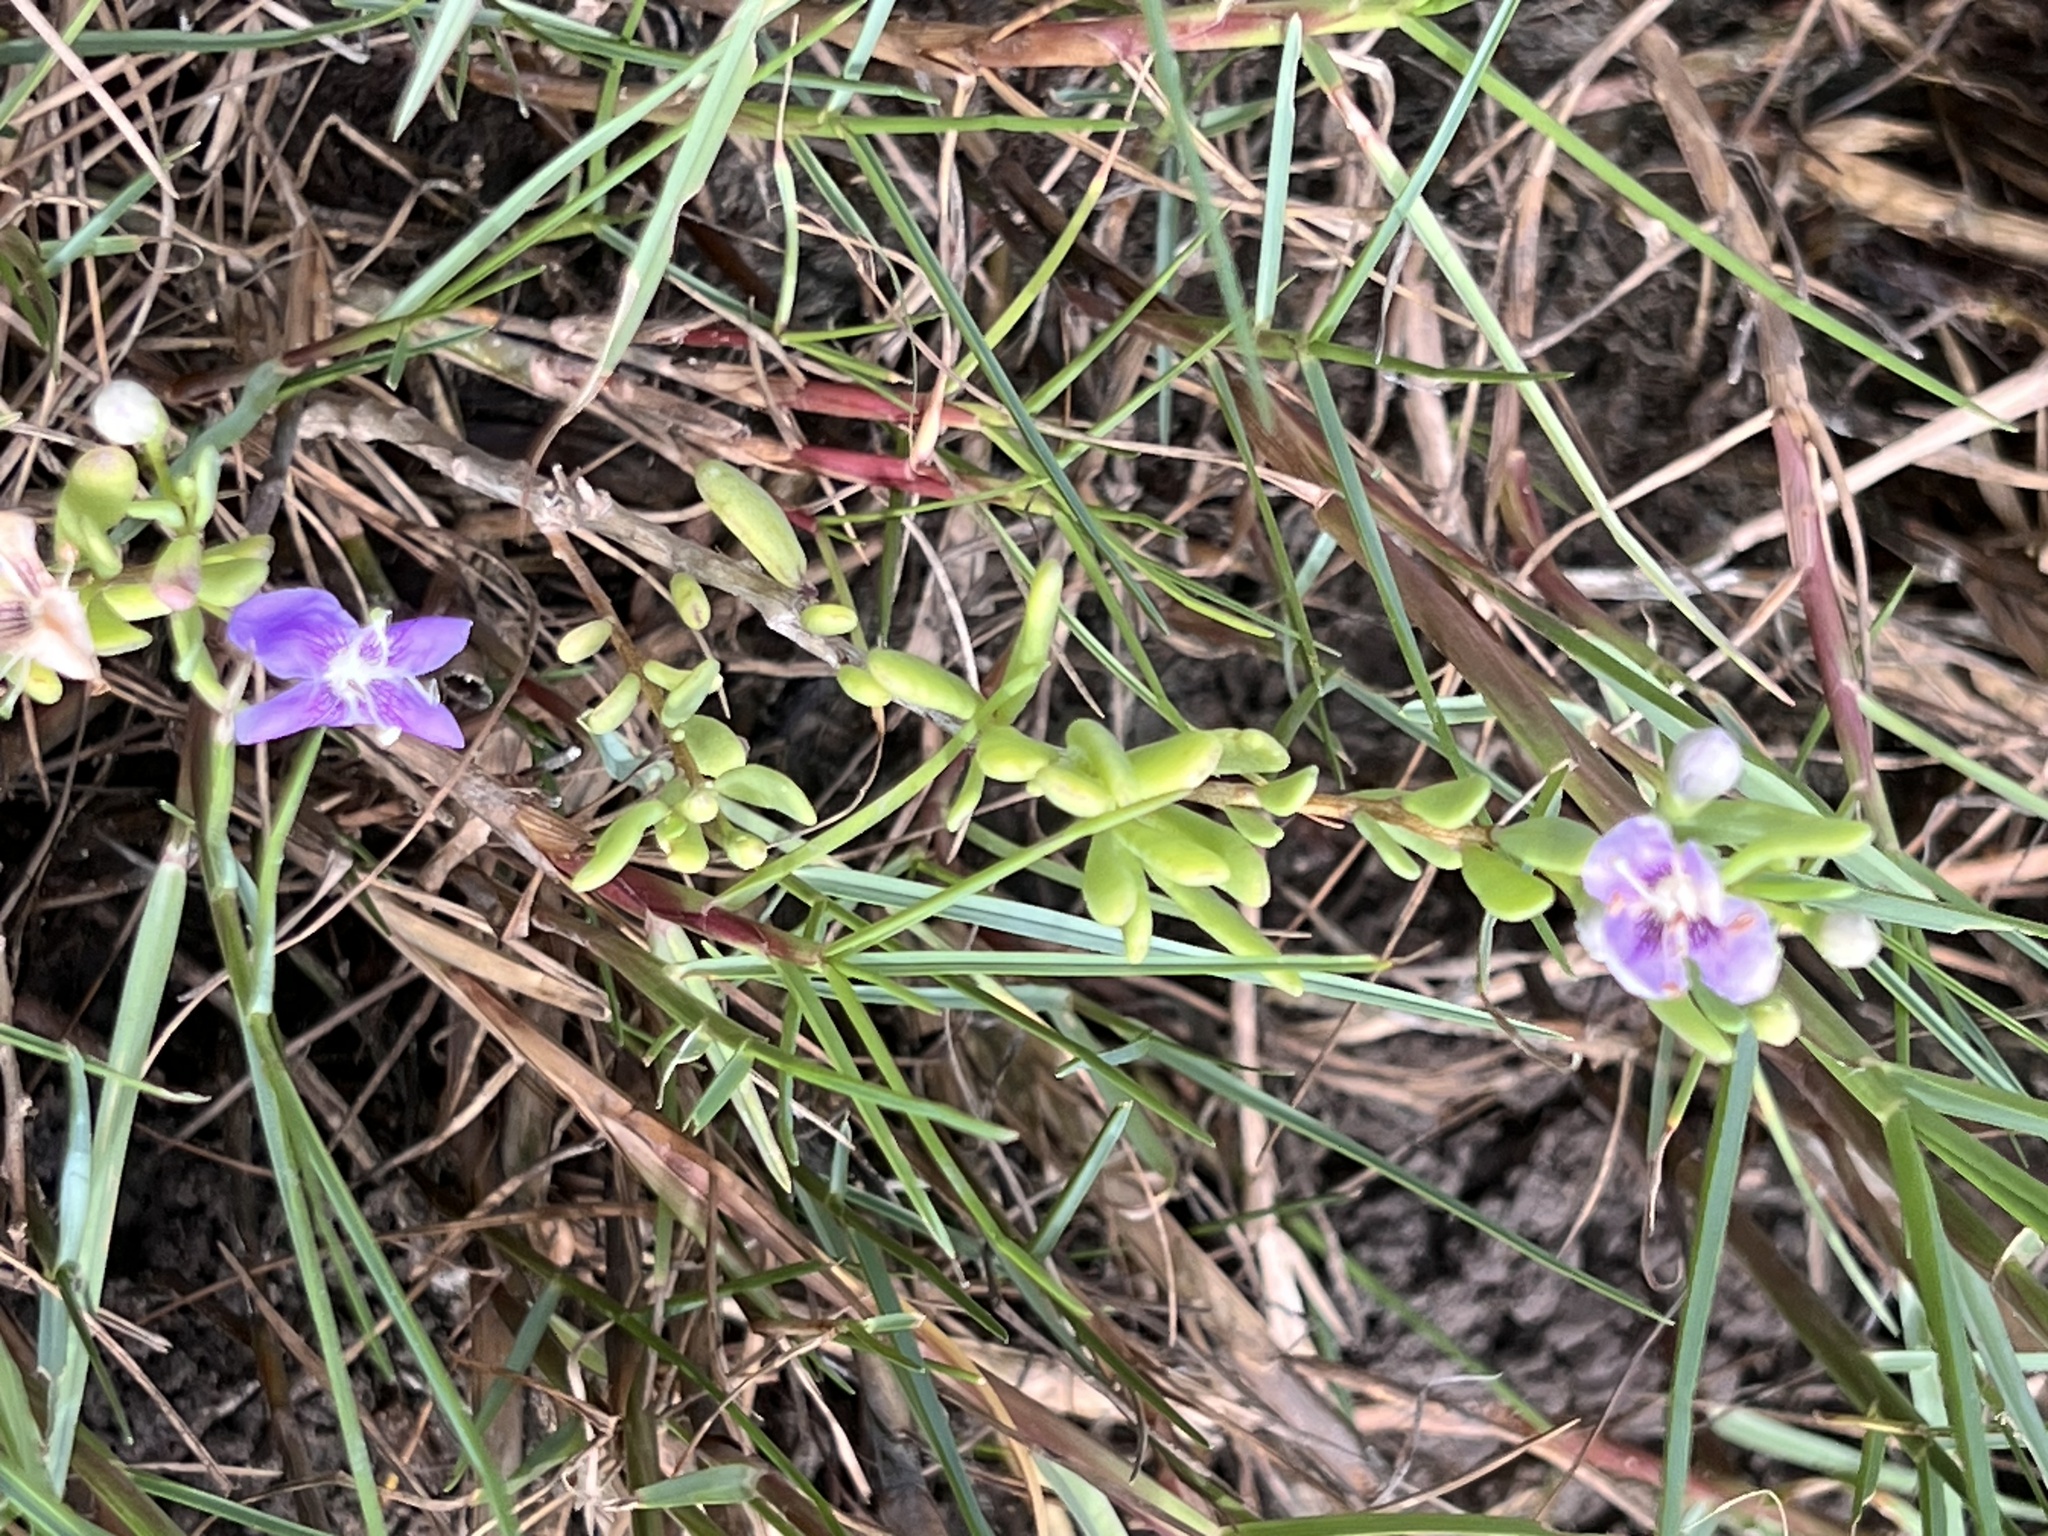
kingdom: Plantae
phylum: Tracheophyta
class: Magnoliopsida
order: Solanales
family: Solanaceae
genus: Lycium
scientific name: Lycium carolinianum
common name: Christmasberry
